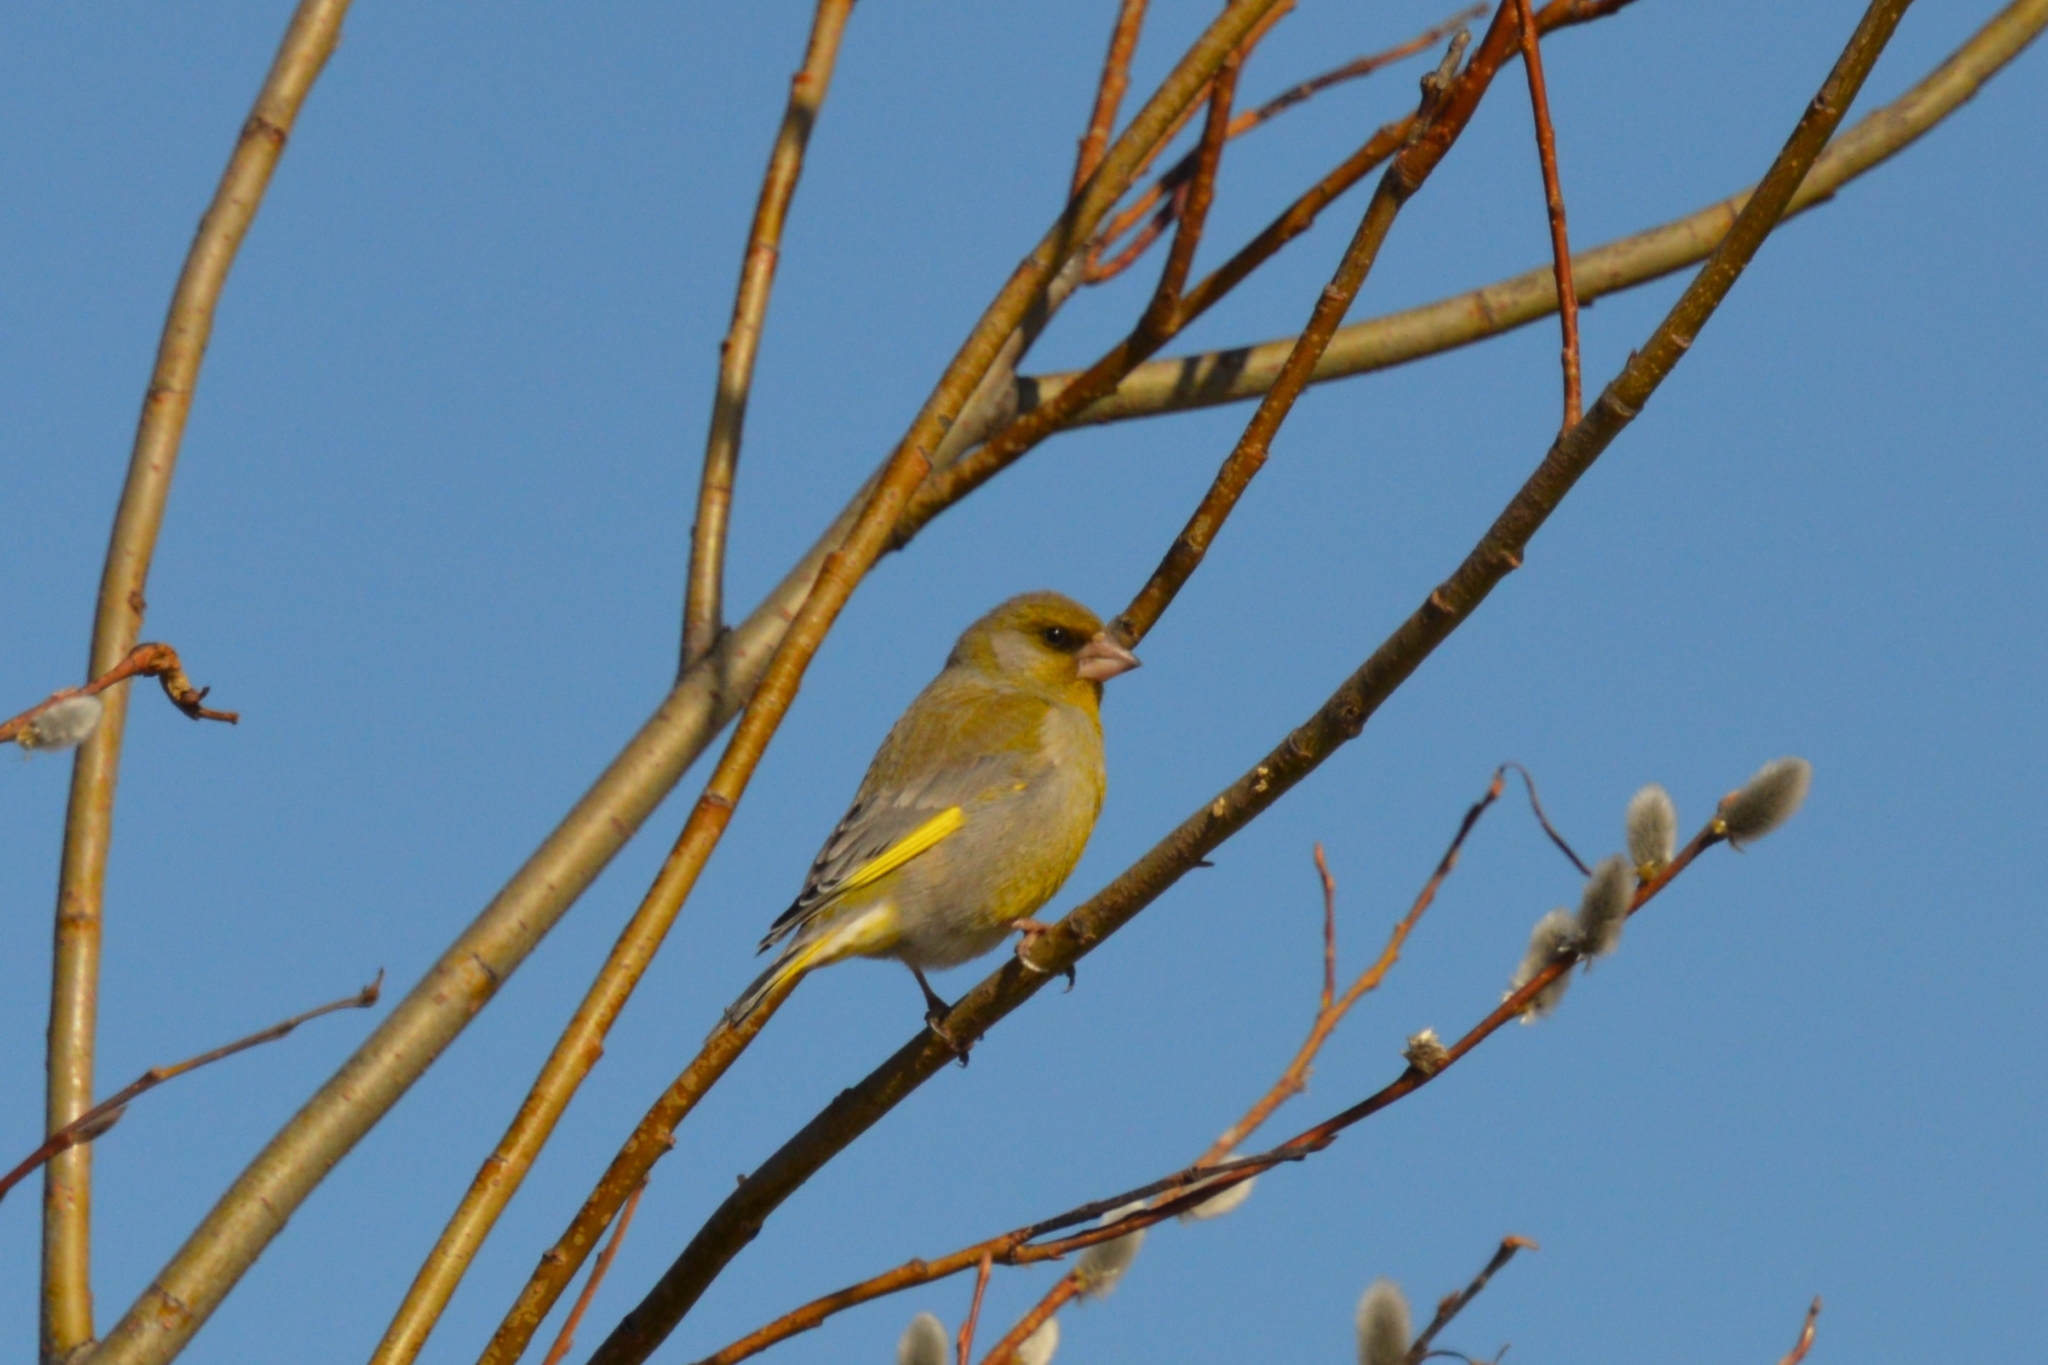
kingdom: Plantae
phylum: Tracheophyta
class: Liliopsida
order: Poales
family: Poaceae
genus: Chloris
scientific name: Chloris chloris
